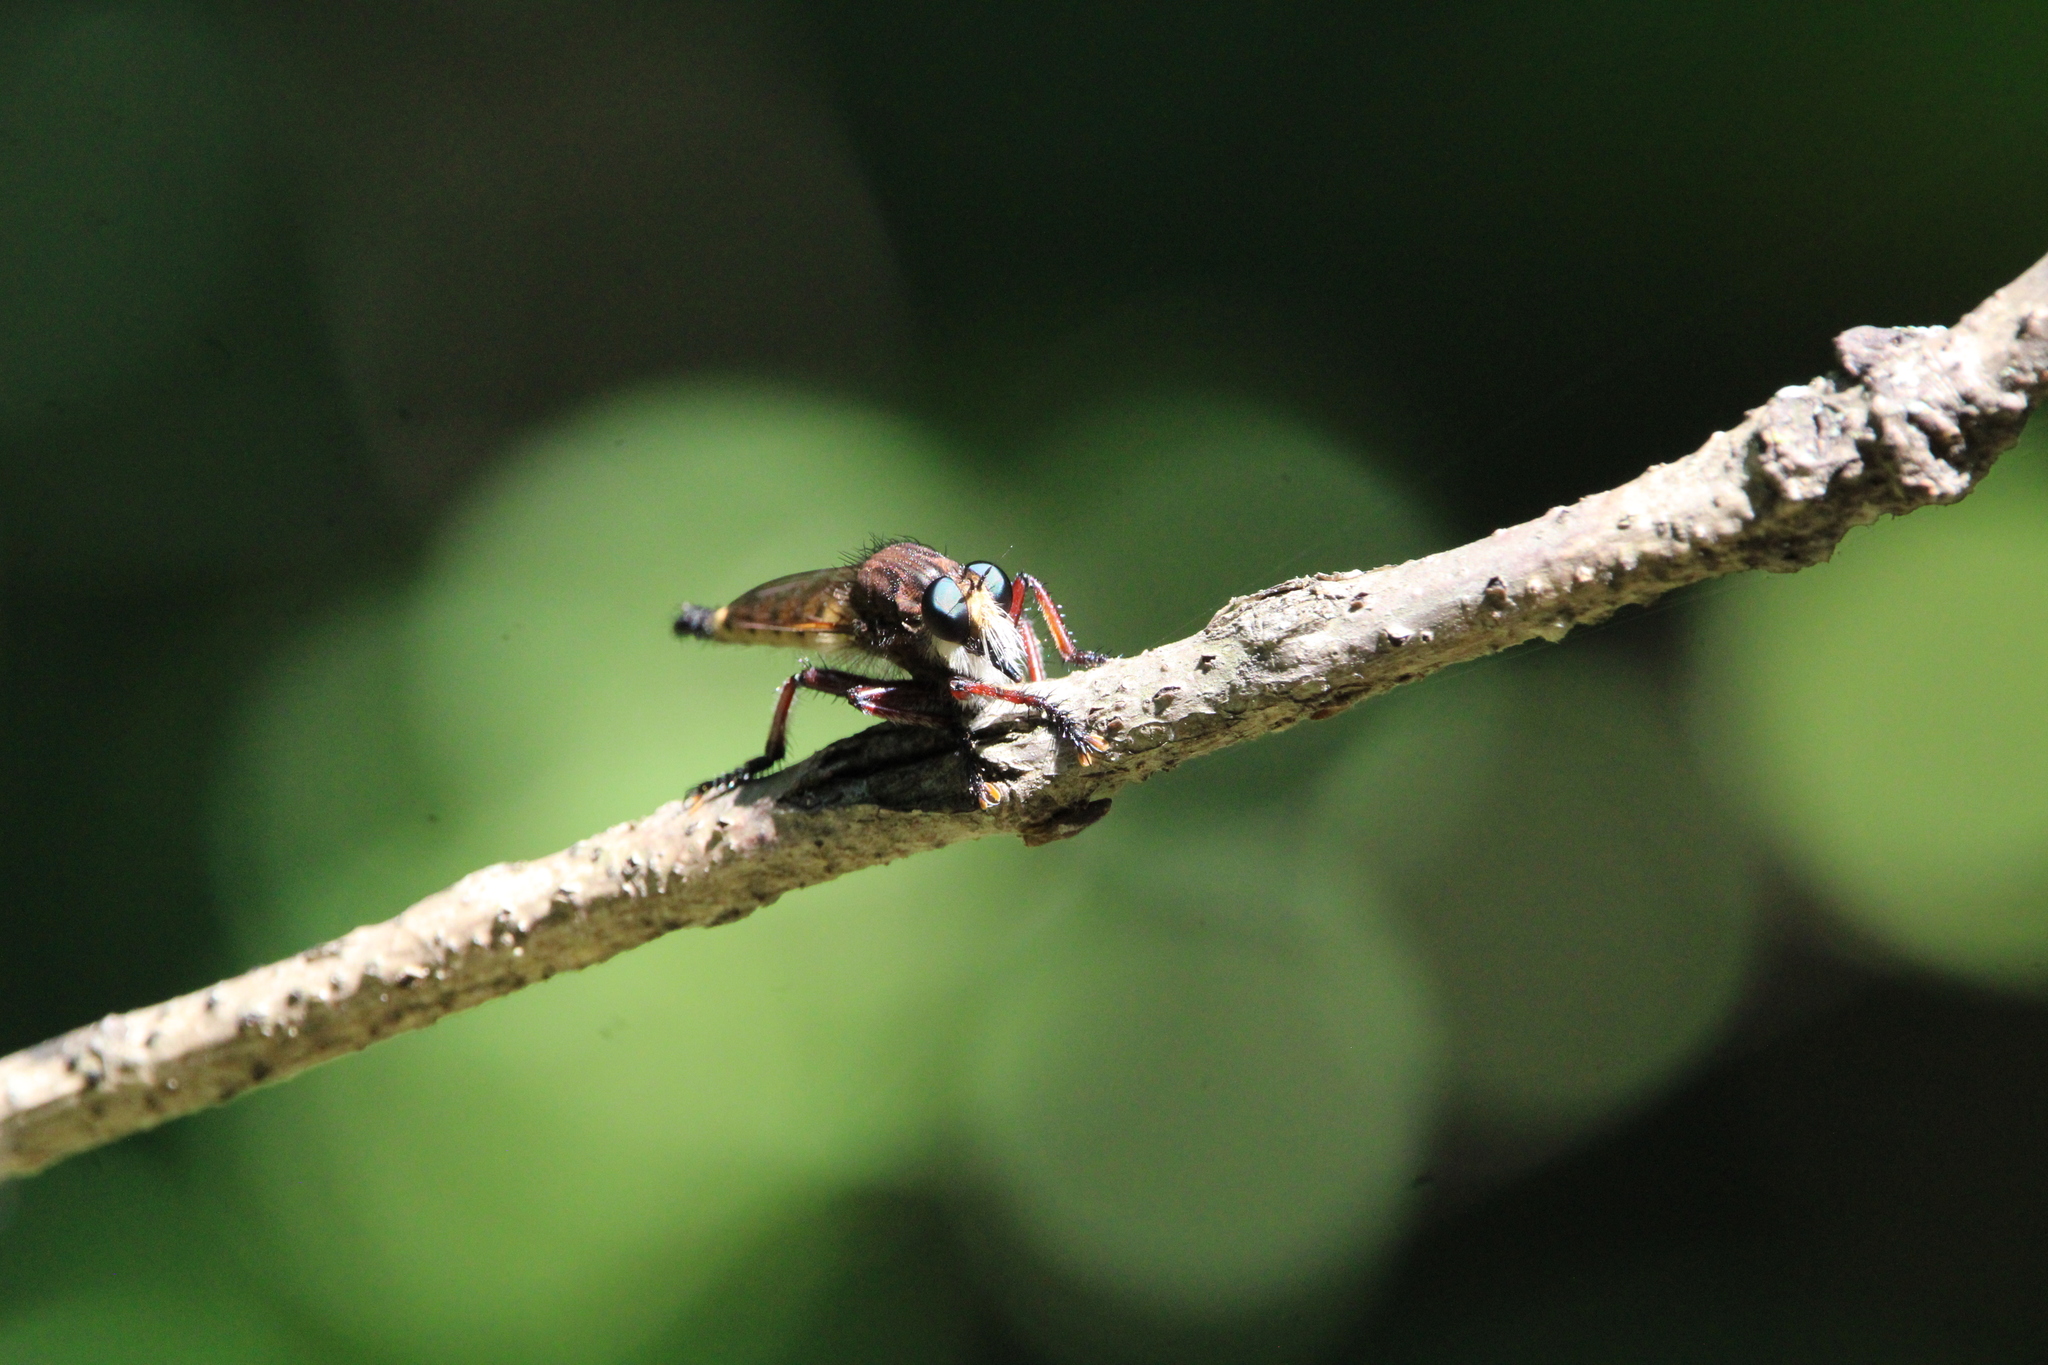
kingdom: Animalia
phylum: Arthropoda
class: Insecta
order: Diptera
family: Asilidae
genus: Promachus
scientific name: Promachus hinei
